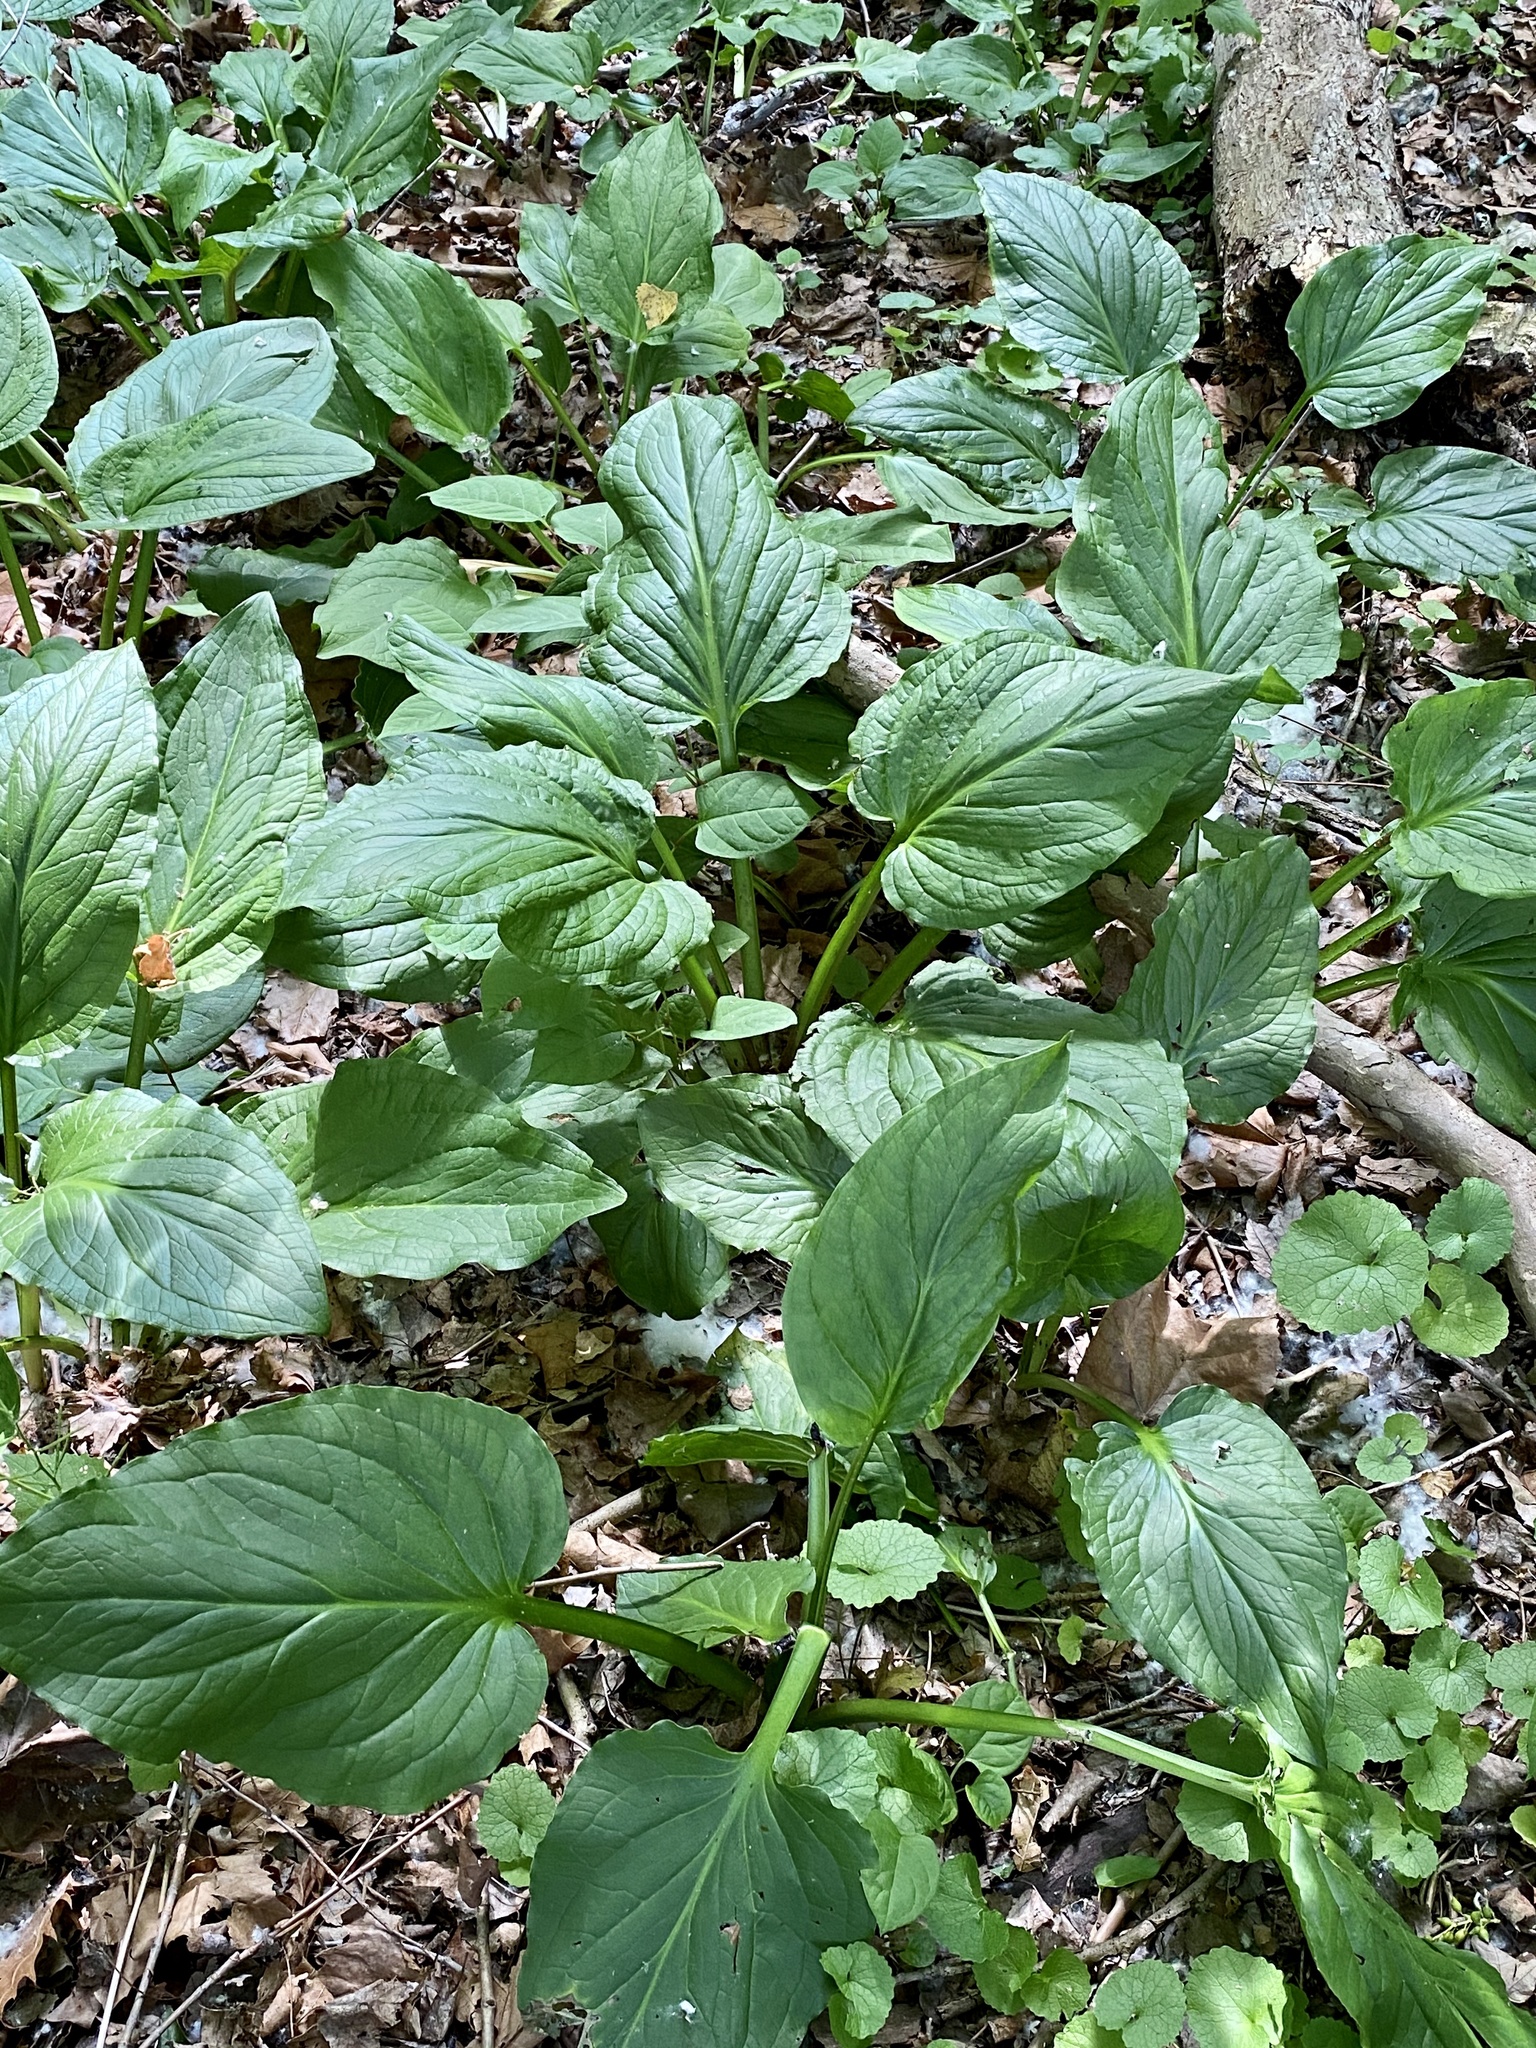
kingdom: Plantae
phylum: Tracheophyta
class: Liliopsida
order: Alismatales
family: Araceae
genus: Symplocarpus
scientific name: Symplocarpus foetidus
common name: Eastern skunk cabbage
